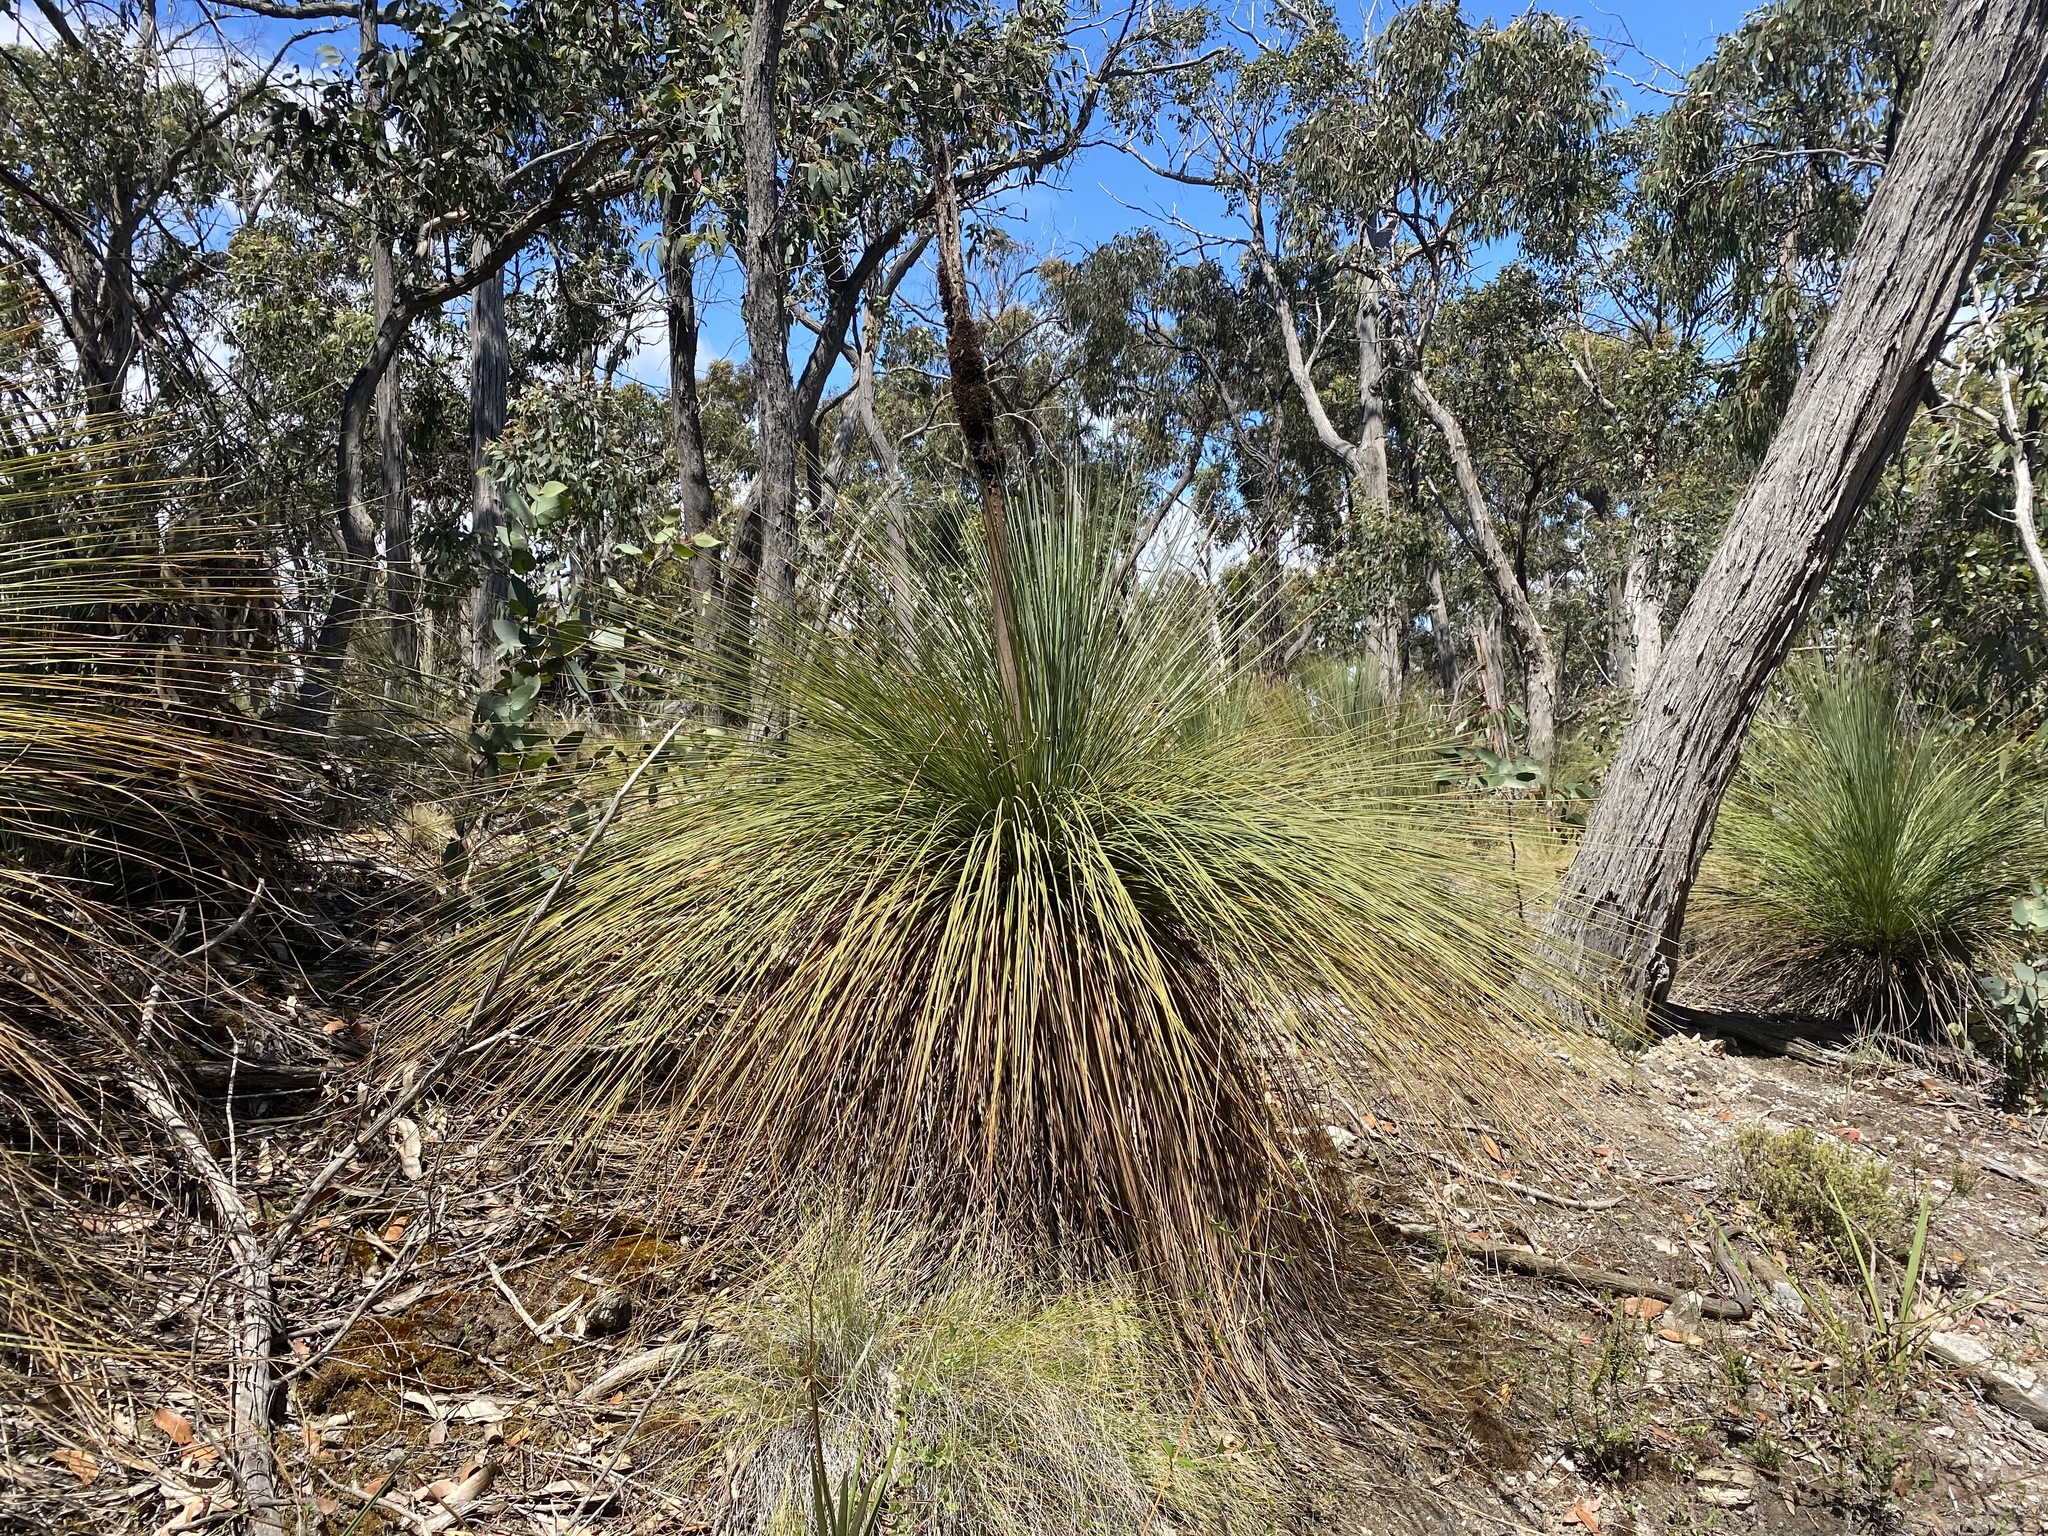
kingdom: Plantae
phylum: Tracheophyta
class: Liliopsida
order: Asparagales
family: Asphodelaceae
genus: Xanthorrhoea
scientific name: Xanthorrhoea australis
